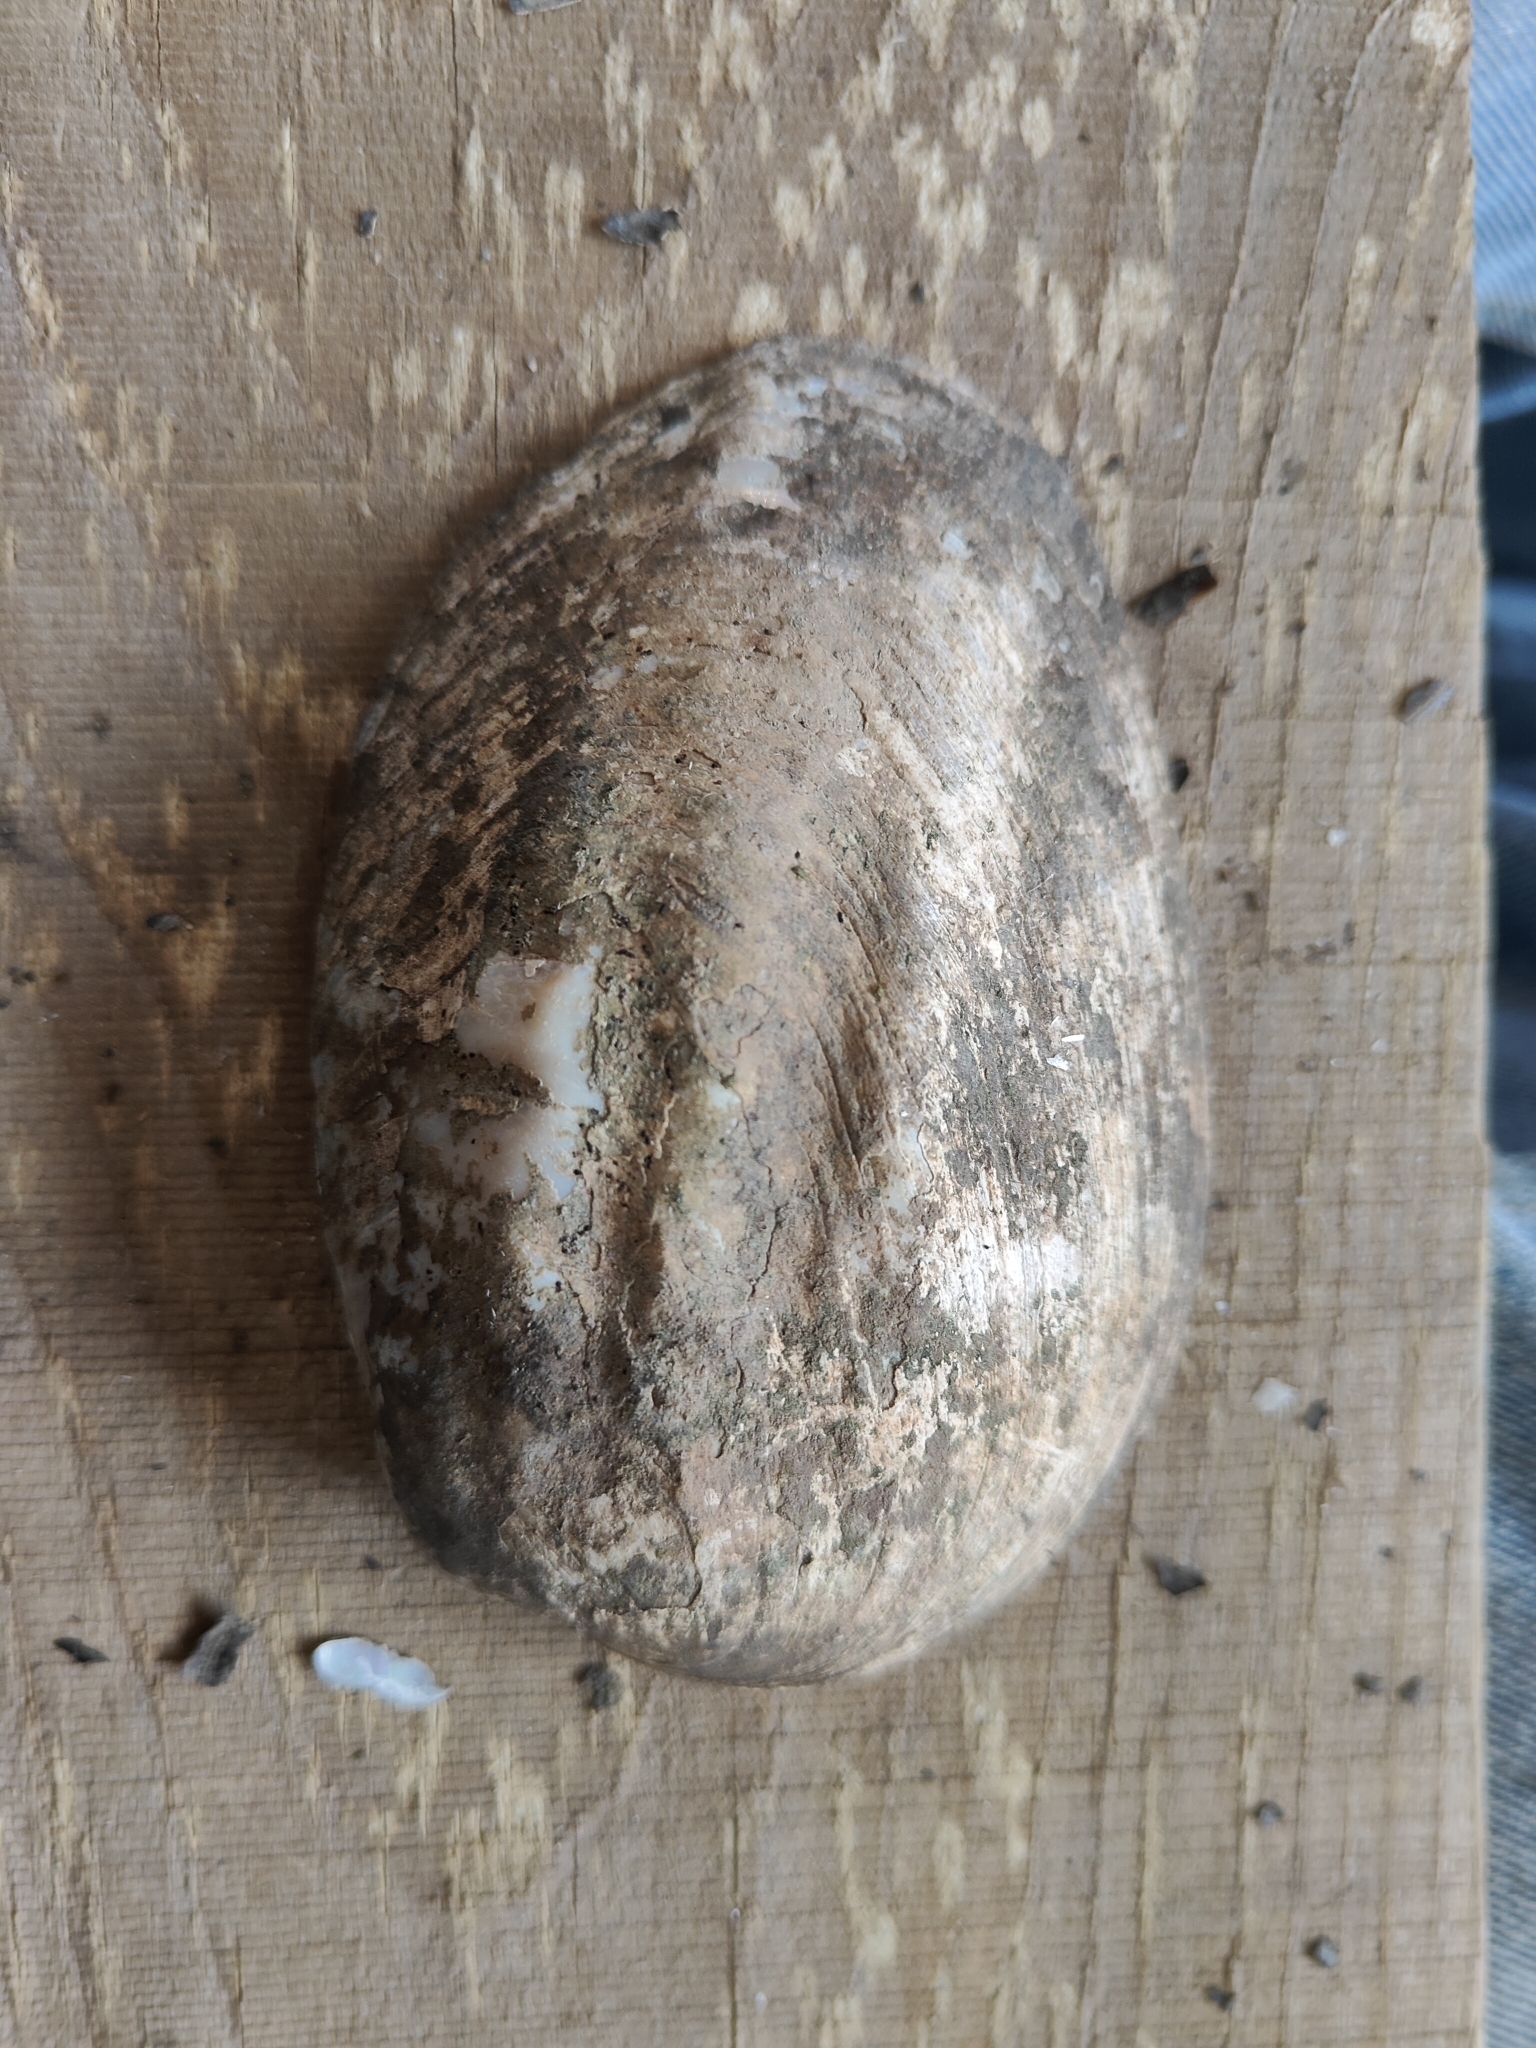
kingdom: Animalia
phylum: Mollusca
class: Bivalvia
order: Unionida
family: Unionidae
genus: Amblema
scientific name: Amblema plicata
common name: Threeridge
